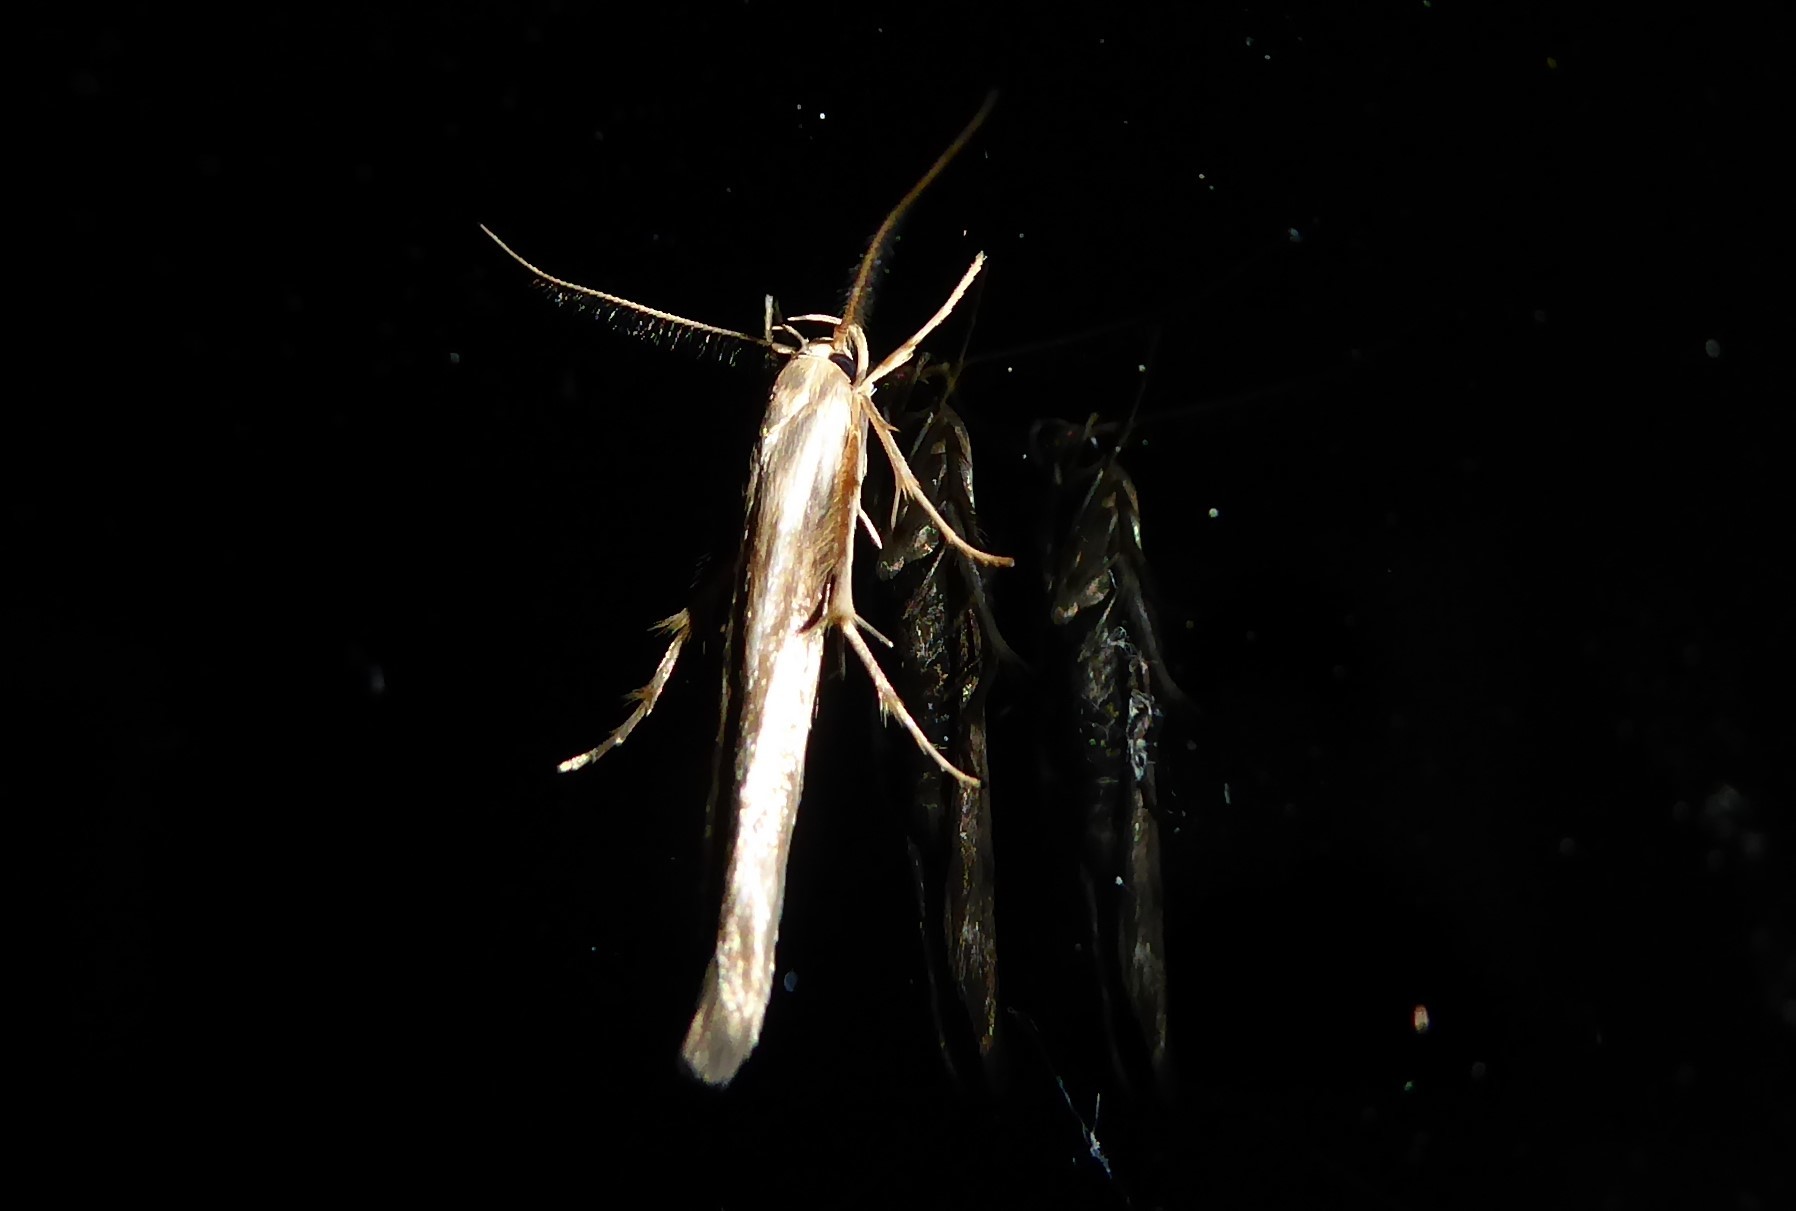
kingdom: Animalia
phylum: Arthropoda
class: Insecta
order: Lepidoptera
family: Stathmopodidae
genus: Stathmopoda
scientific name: Stathmopoda aposema
